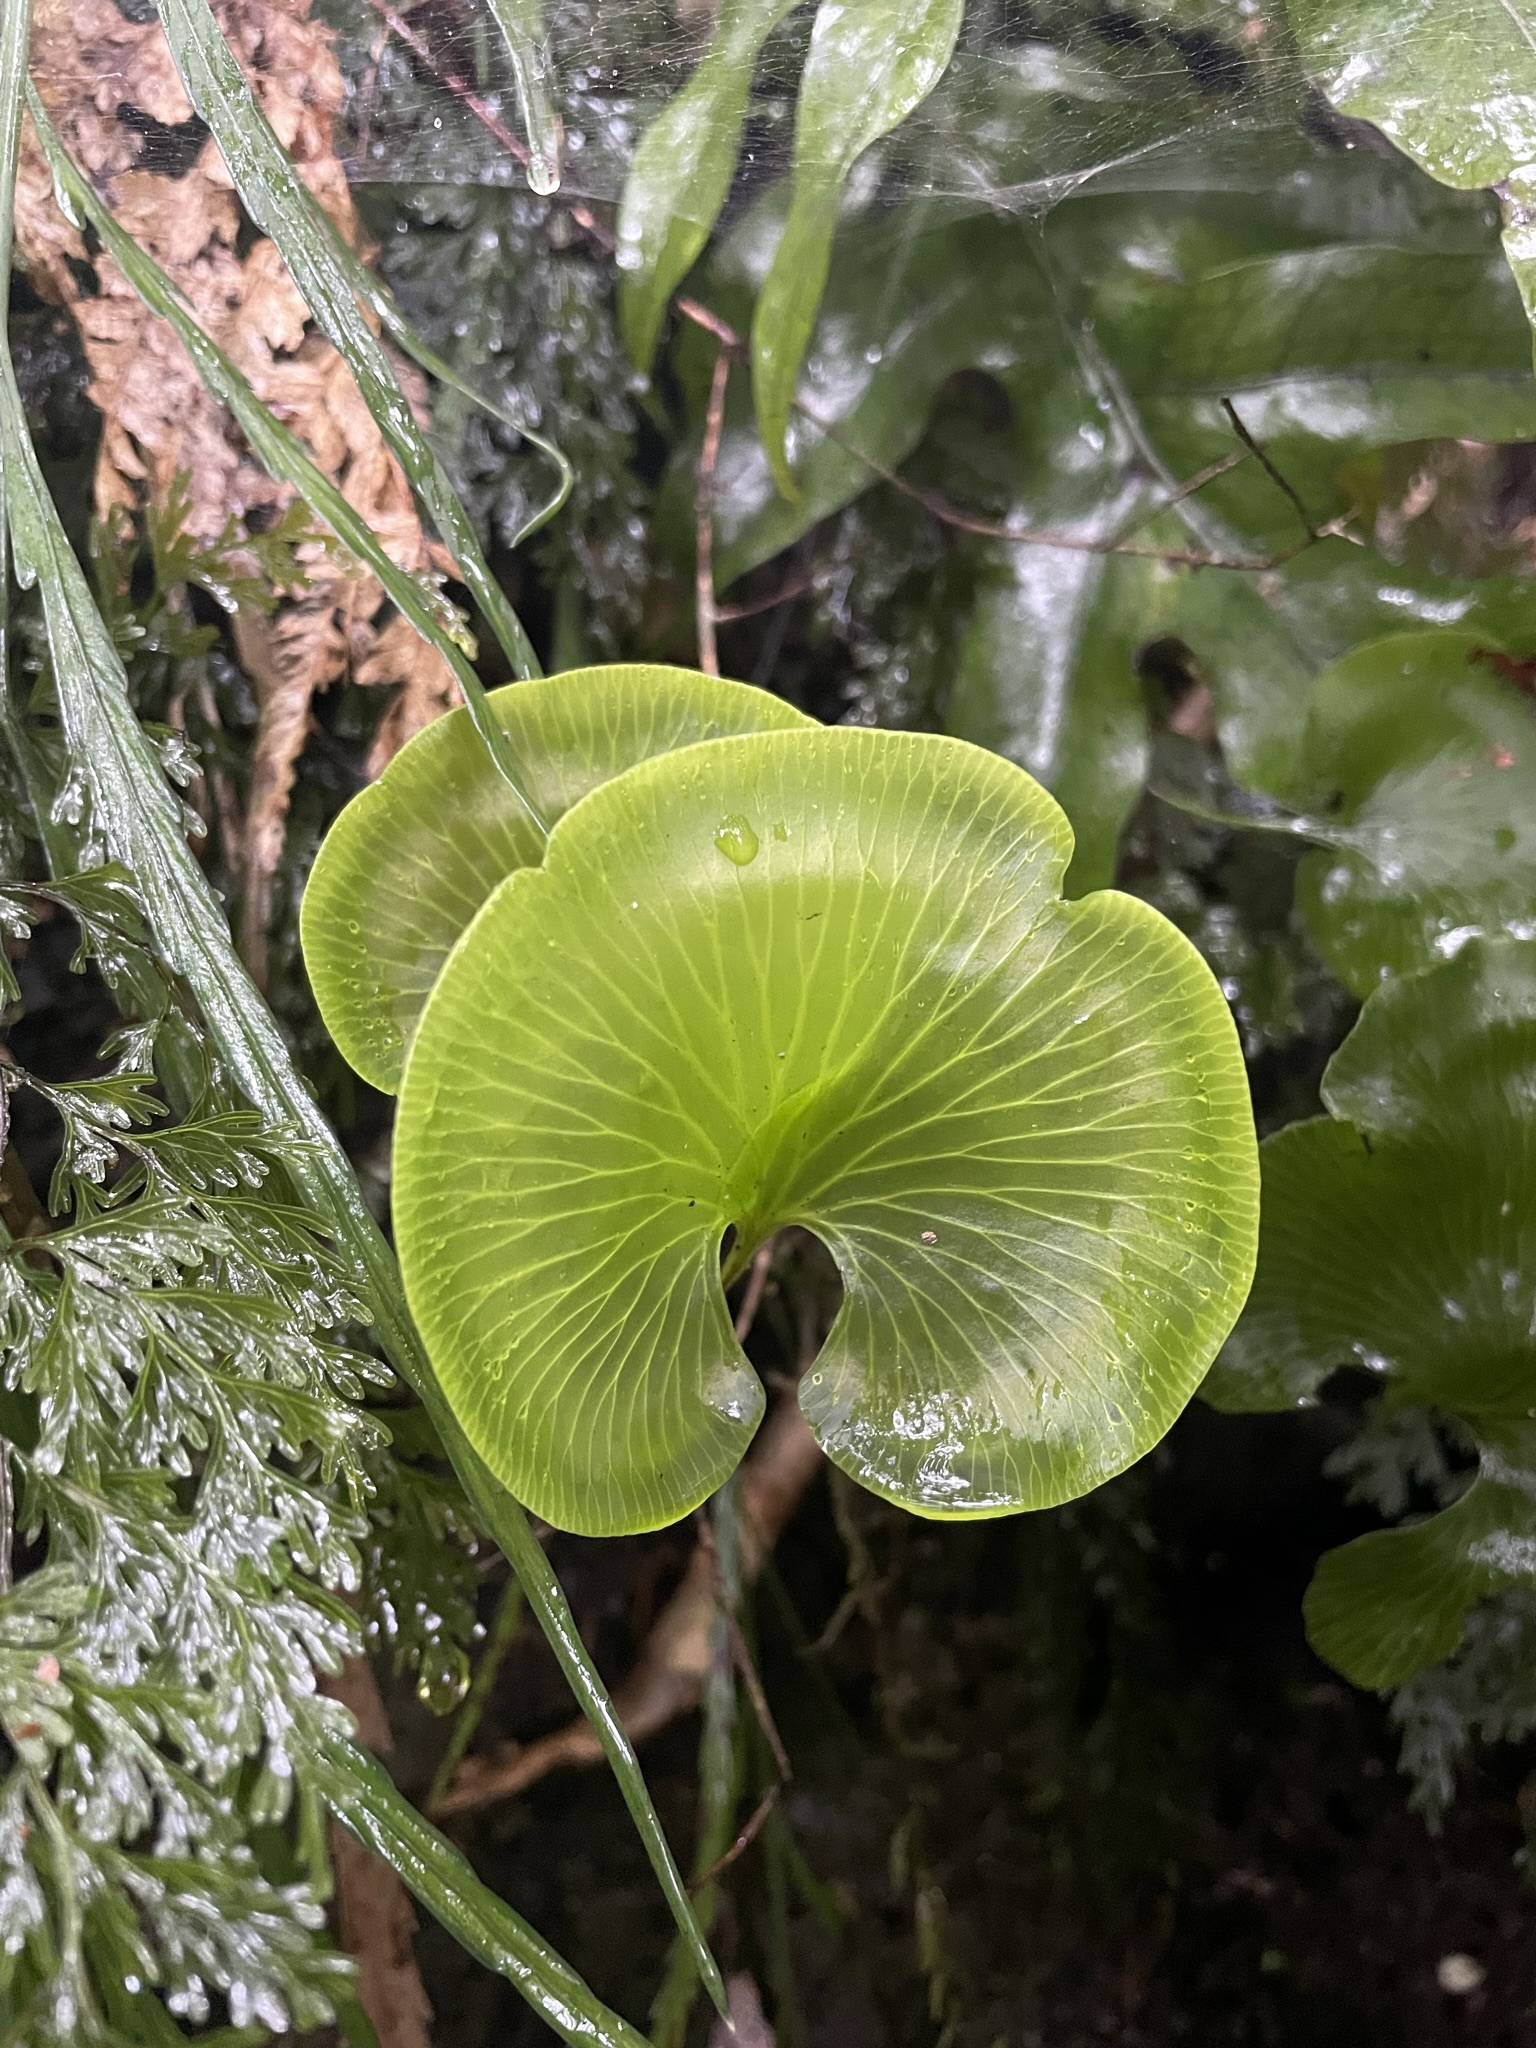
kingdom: Plantae
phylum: Tracheophyta
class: Polypodiopsida
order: Hymenophyllales
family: Hymenophyllaceae
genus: Hymenophyllum
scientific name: Hymenophyllum nephrophyllum
